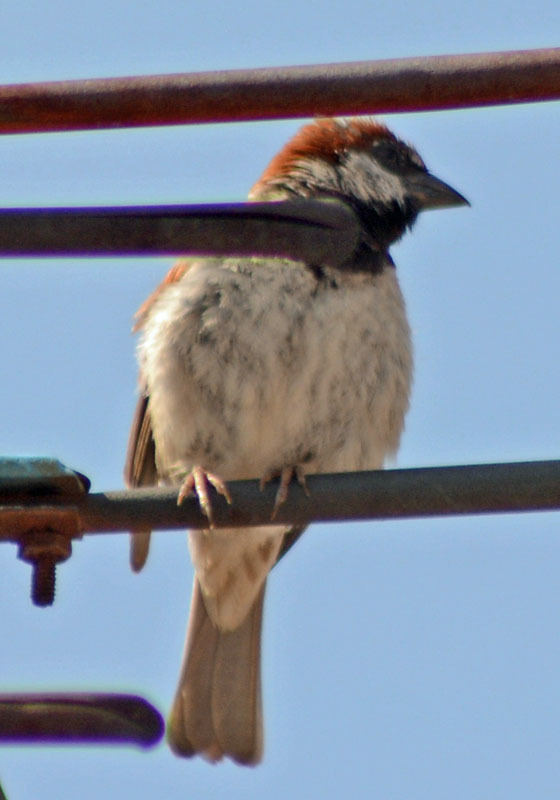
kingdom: Animalia
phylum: Chordata
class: Aves
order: Passeriformes
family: Passeridae
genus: Passer
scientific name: Passer domesticus
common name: House sparrow
